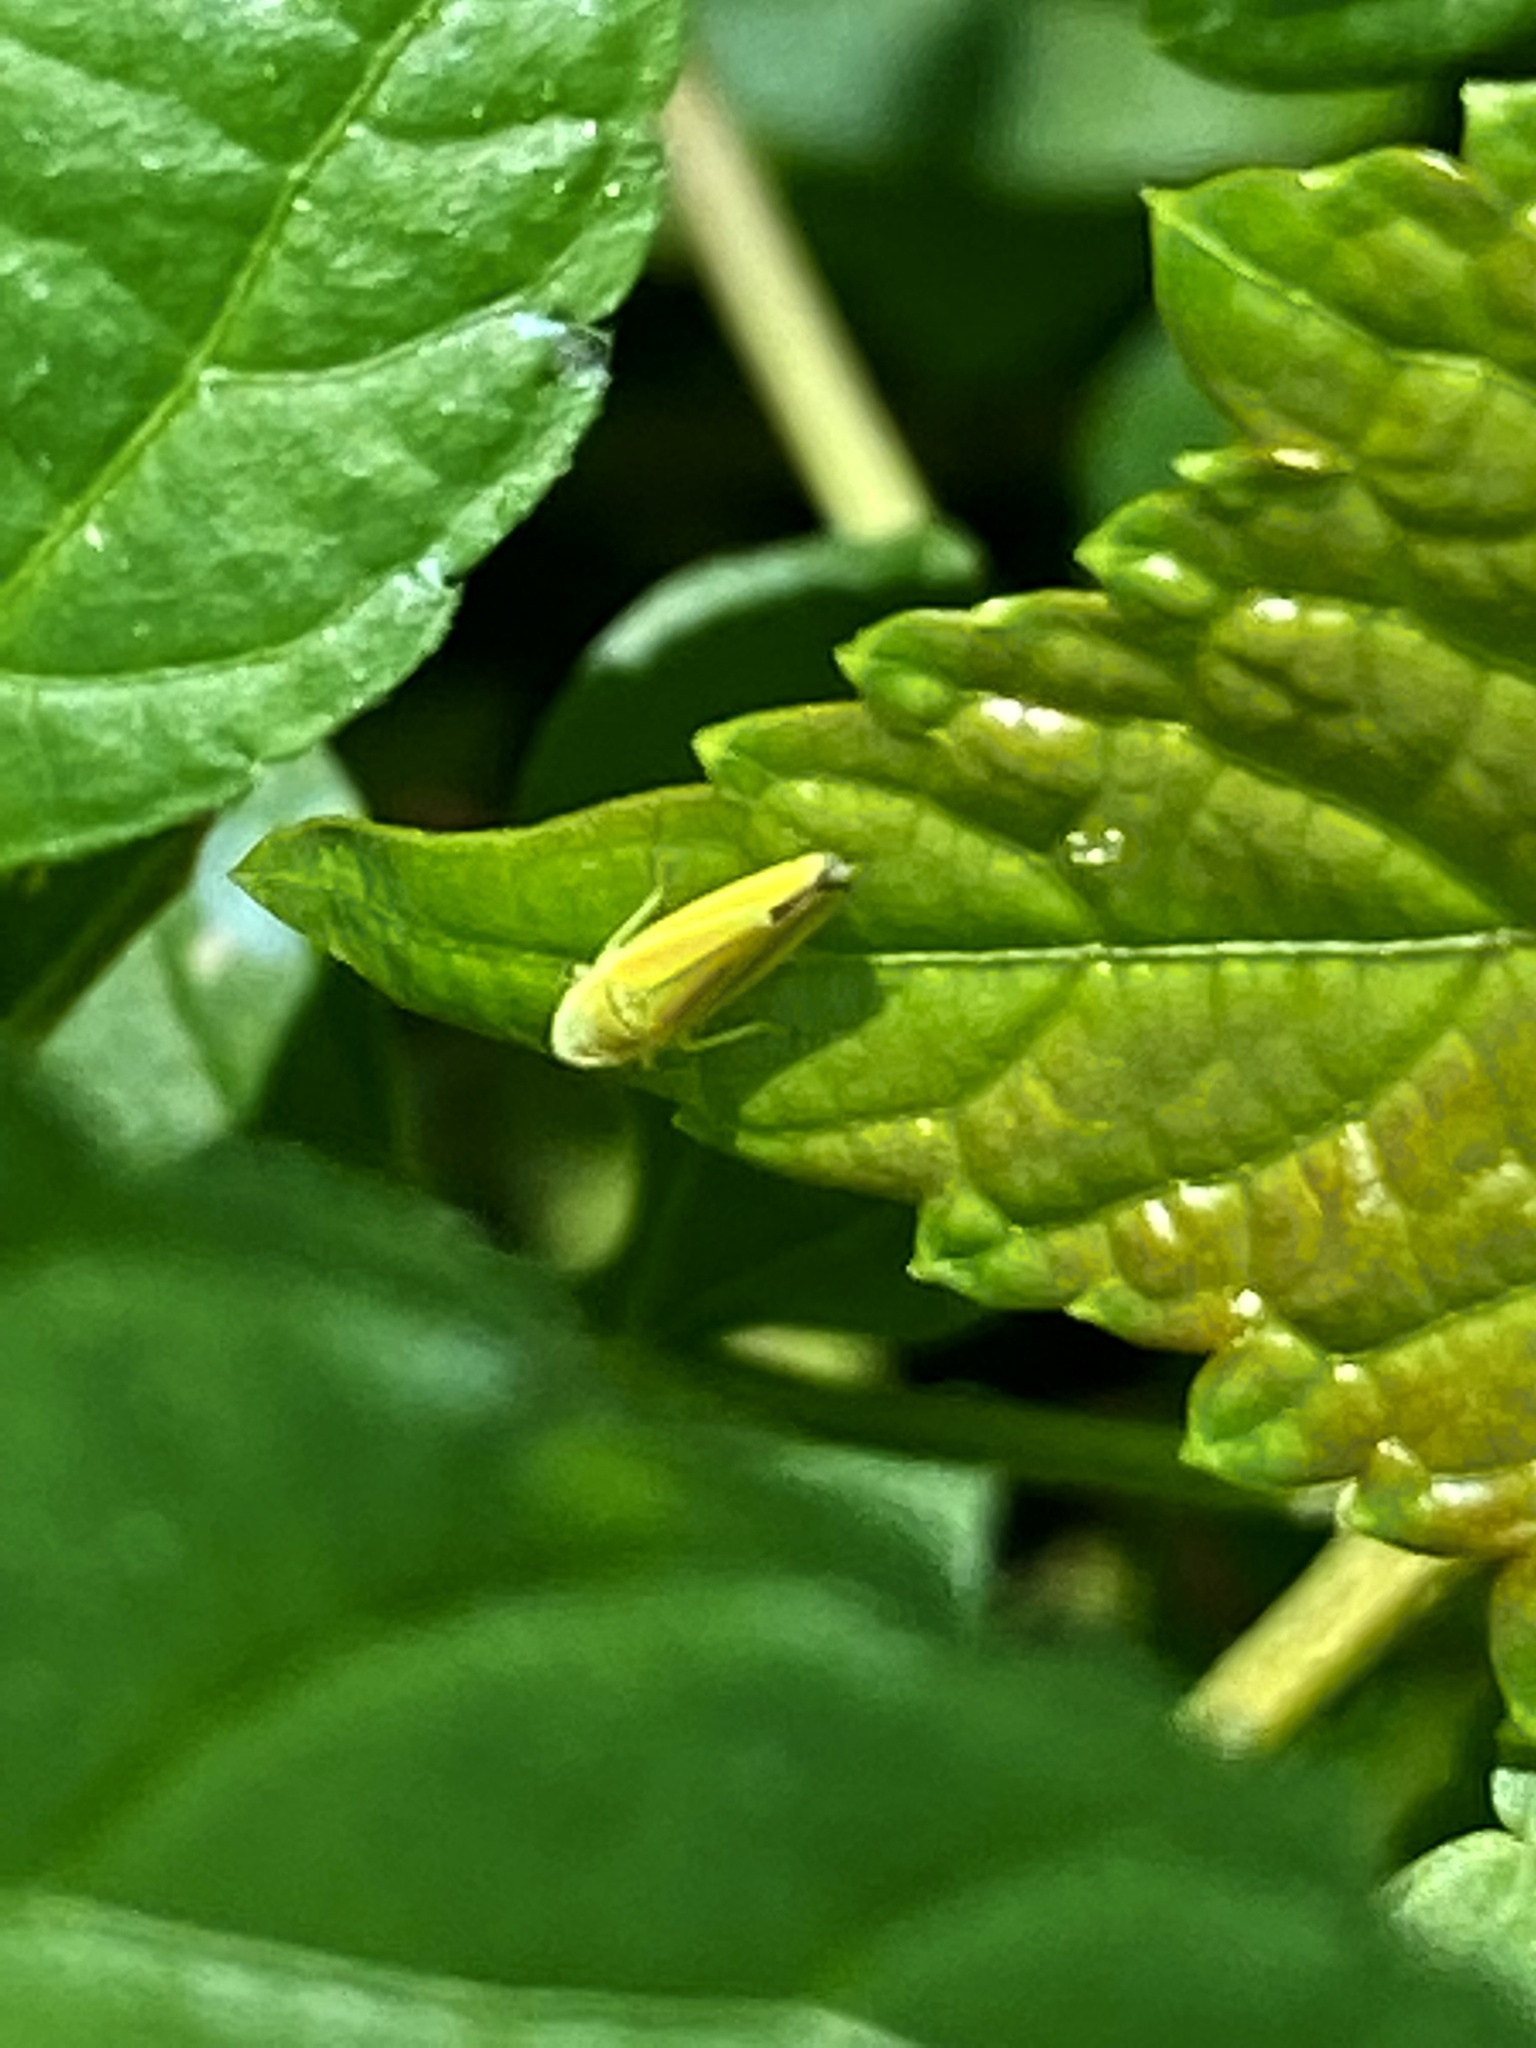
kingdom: Animalia
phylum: Arthropoda
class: Insecta
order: Hemiptera
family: Cicadellidae
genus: Graphocephala
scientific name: Graphocephala versuta
